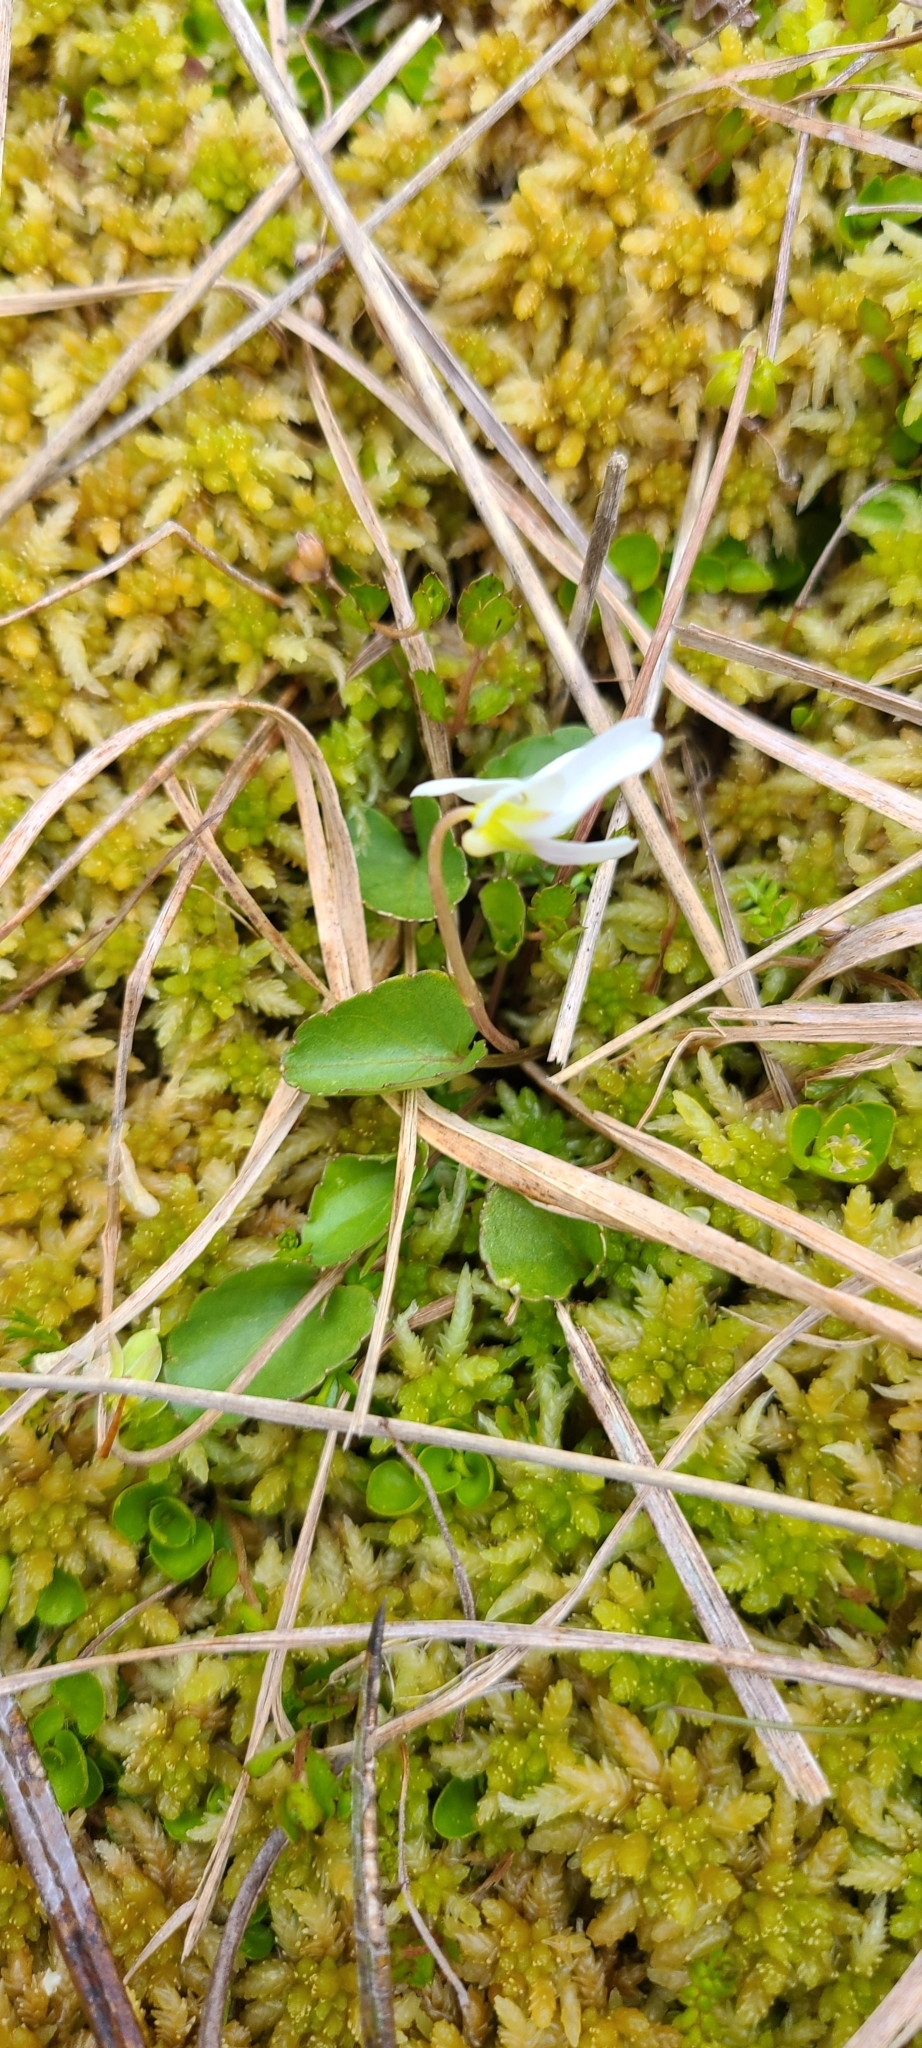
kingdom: Plantae
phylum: Tracheophyta
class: Magnoliopsida
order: Malpighiales
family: Violaceae
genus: Viola
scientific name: Viola cunninghamii
